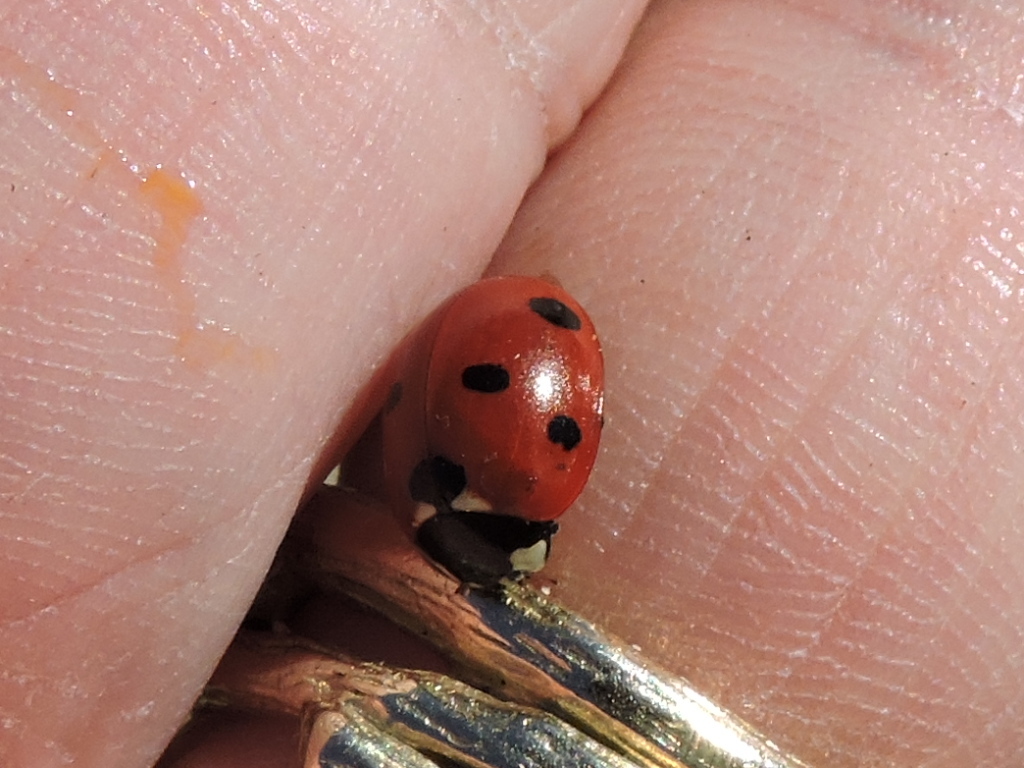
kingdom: Animalia
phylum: Arthropoda
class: Insecta
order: Coleoptera
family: Coccinellidae
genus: Coccinella
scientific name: Coccinella septempunctata
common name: Sevenspotted lady beetle
